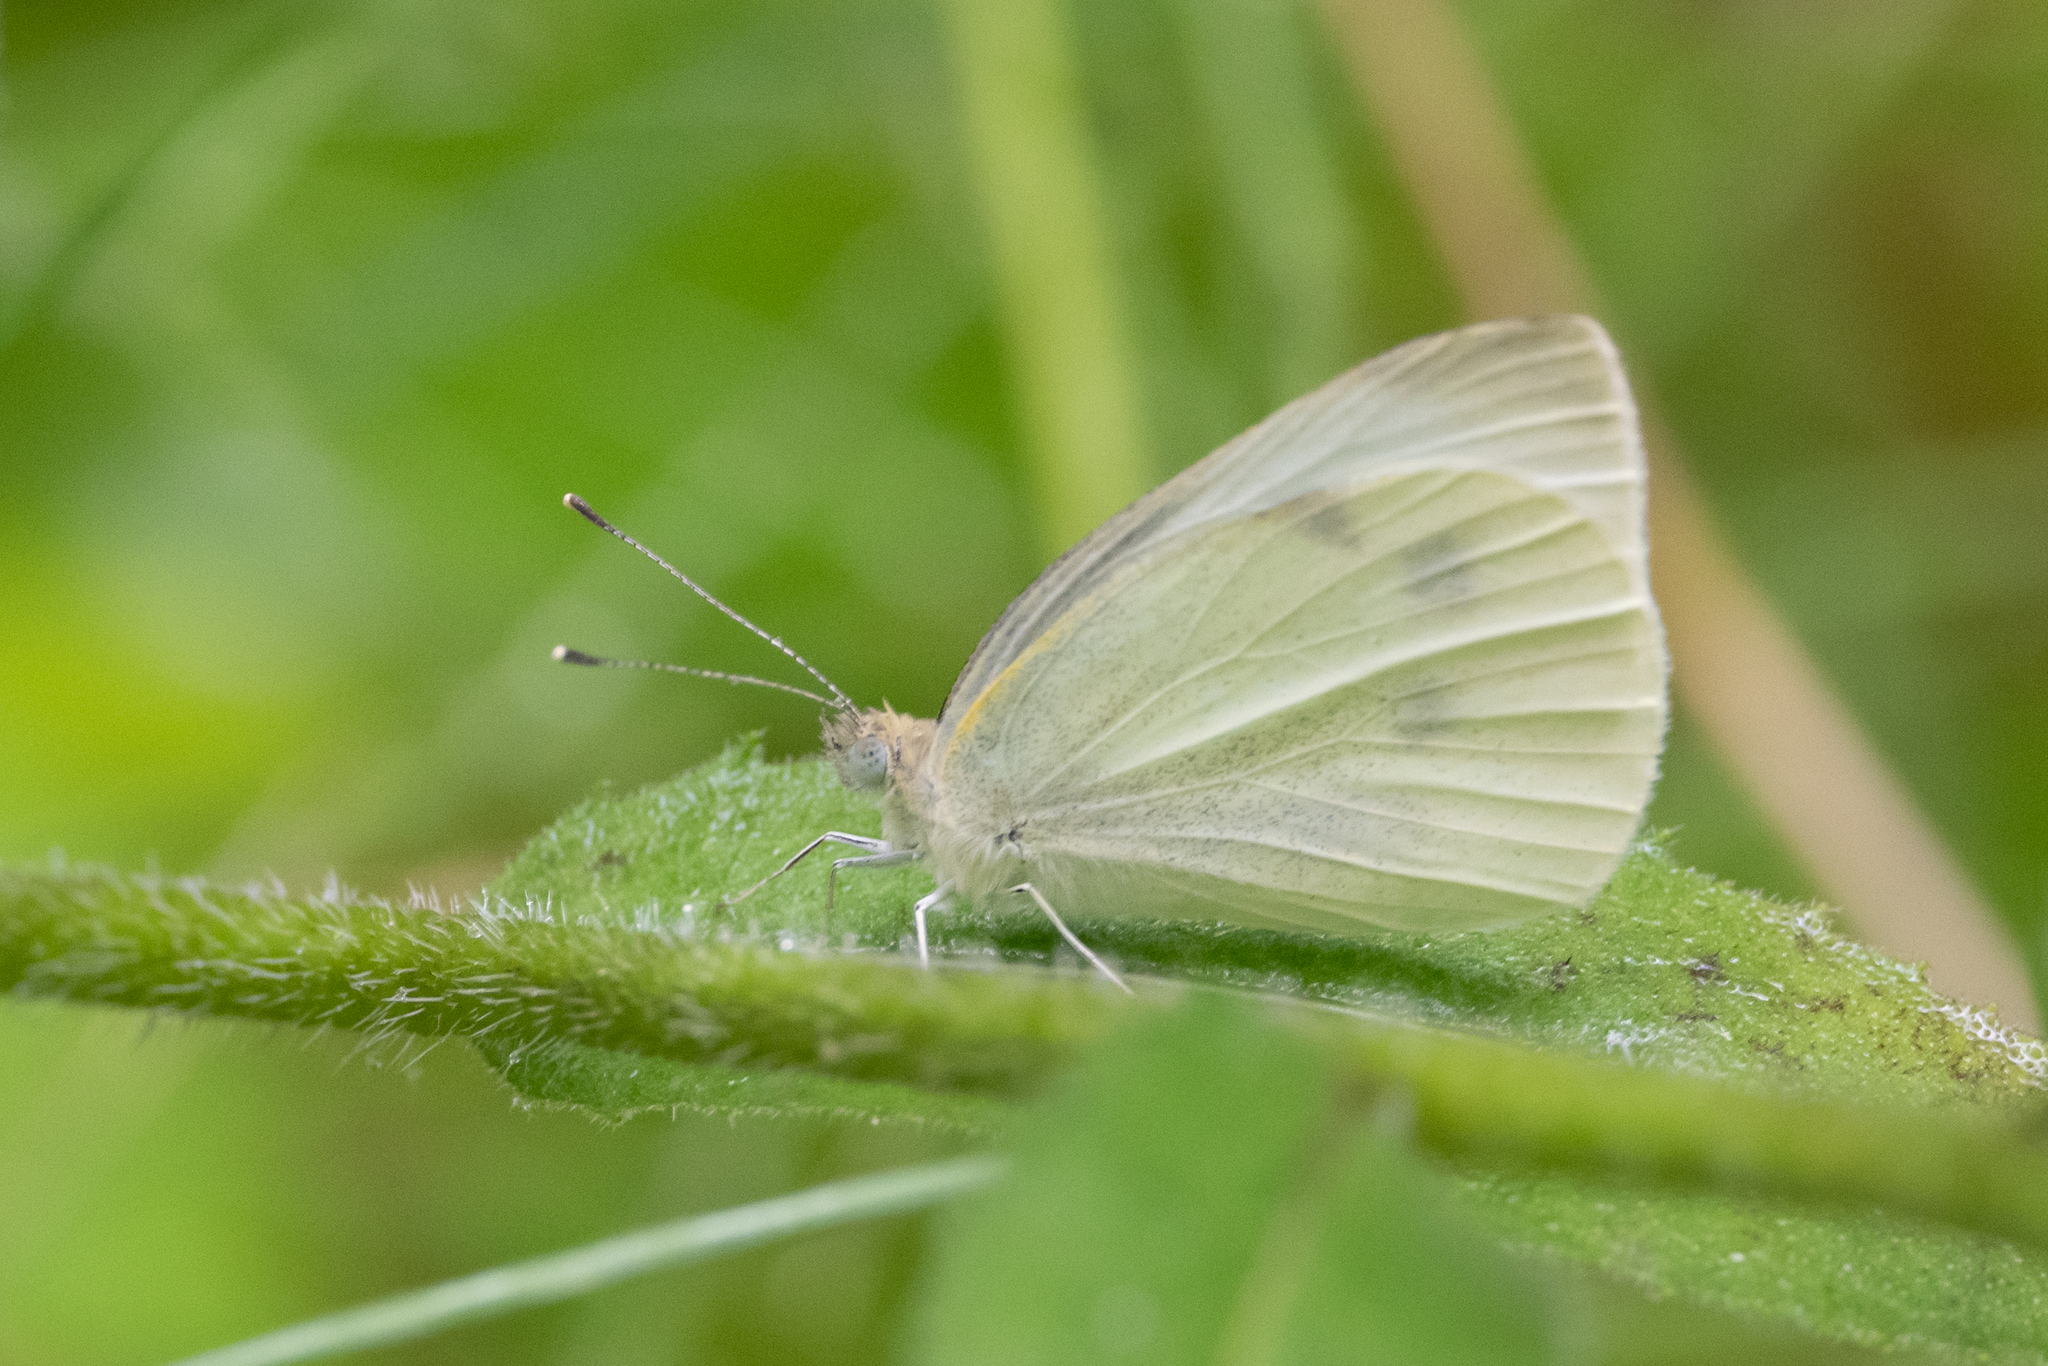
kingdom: Animalia
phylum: Arthropoda
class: Insecta
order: Lepidoptera
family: Pieridae
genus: Pieris
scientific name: Pieris rapae
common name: Small white
